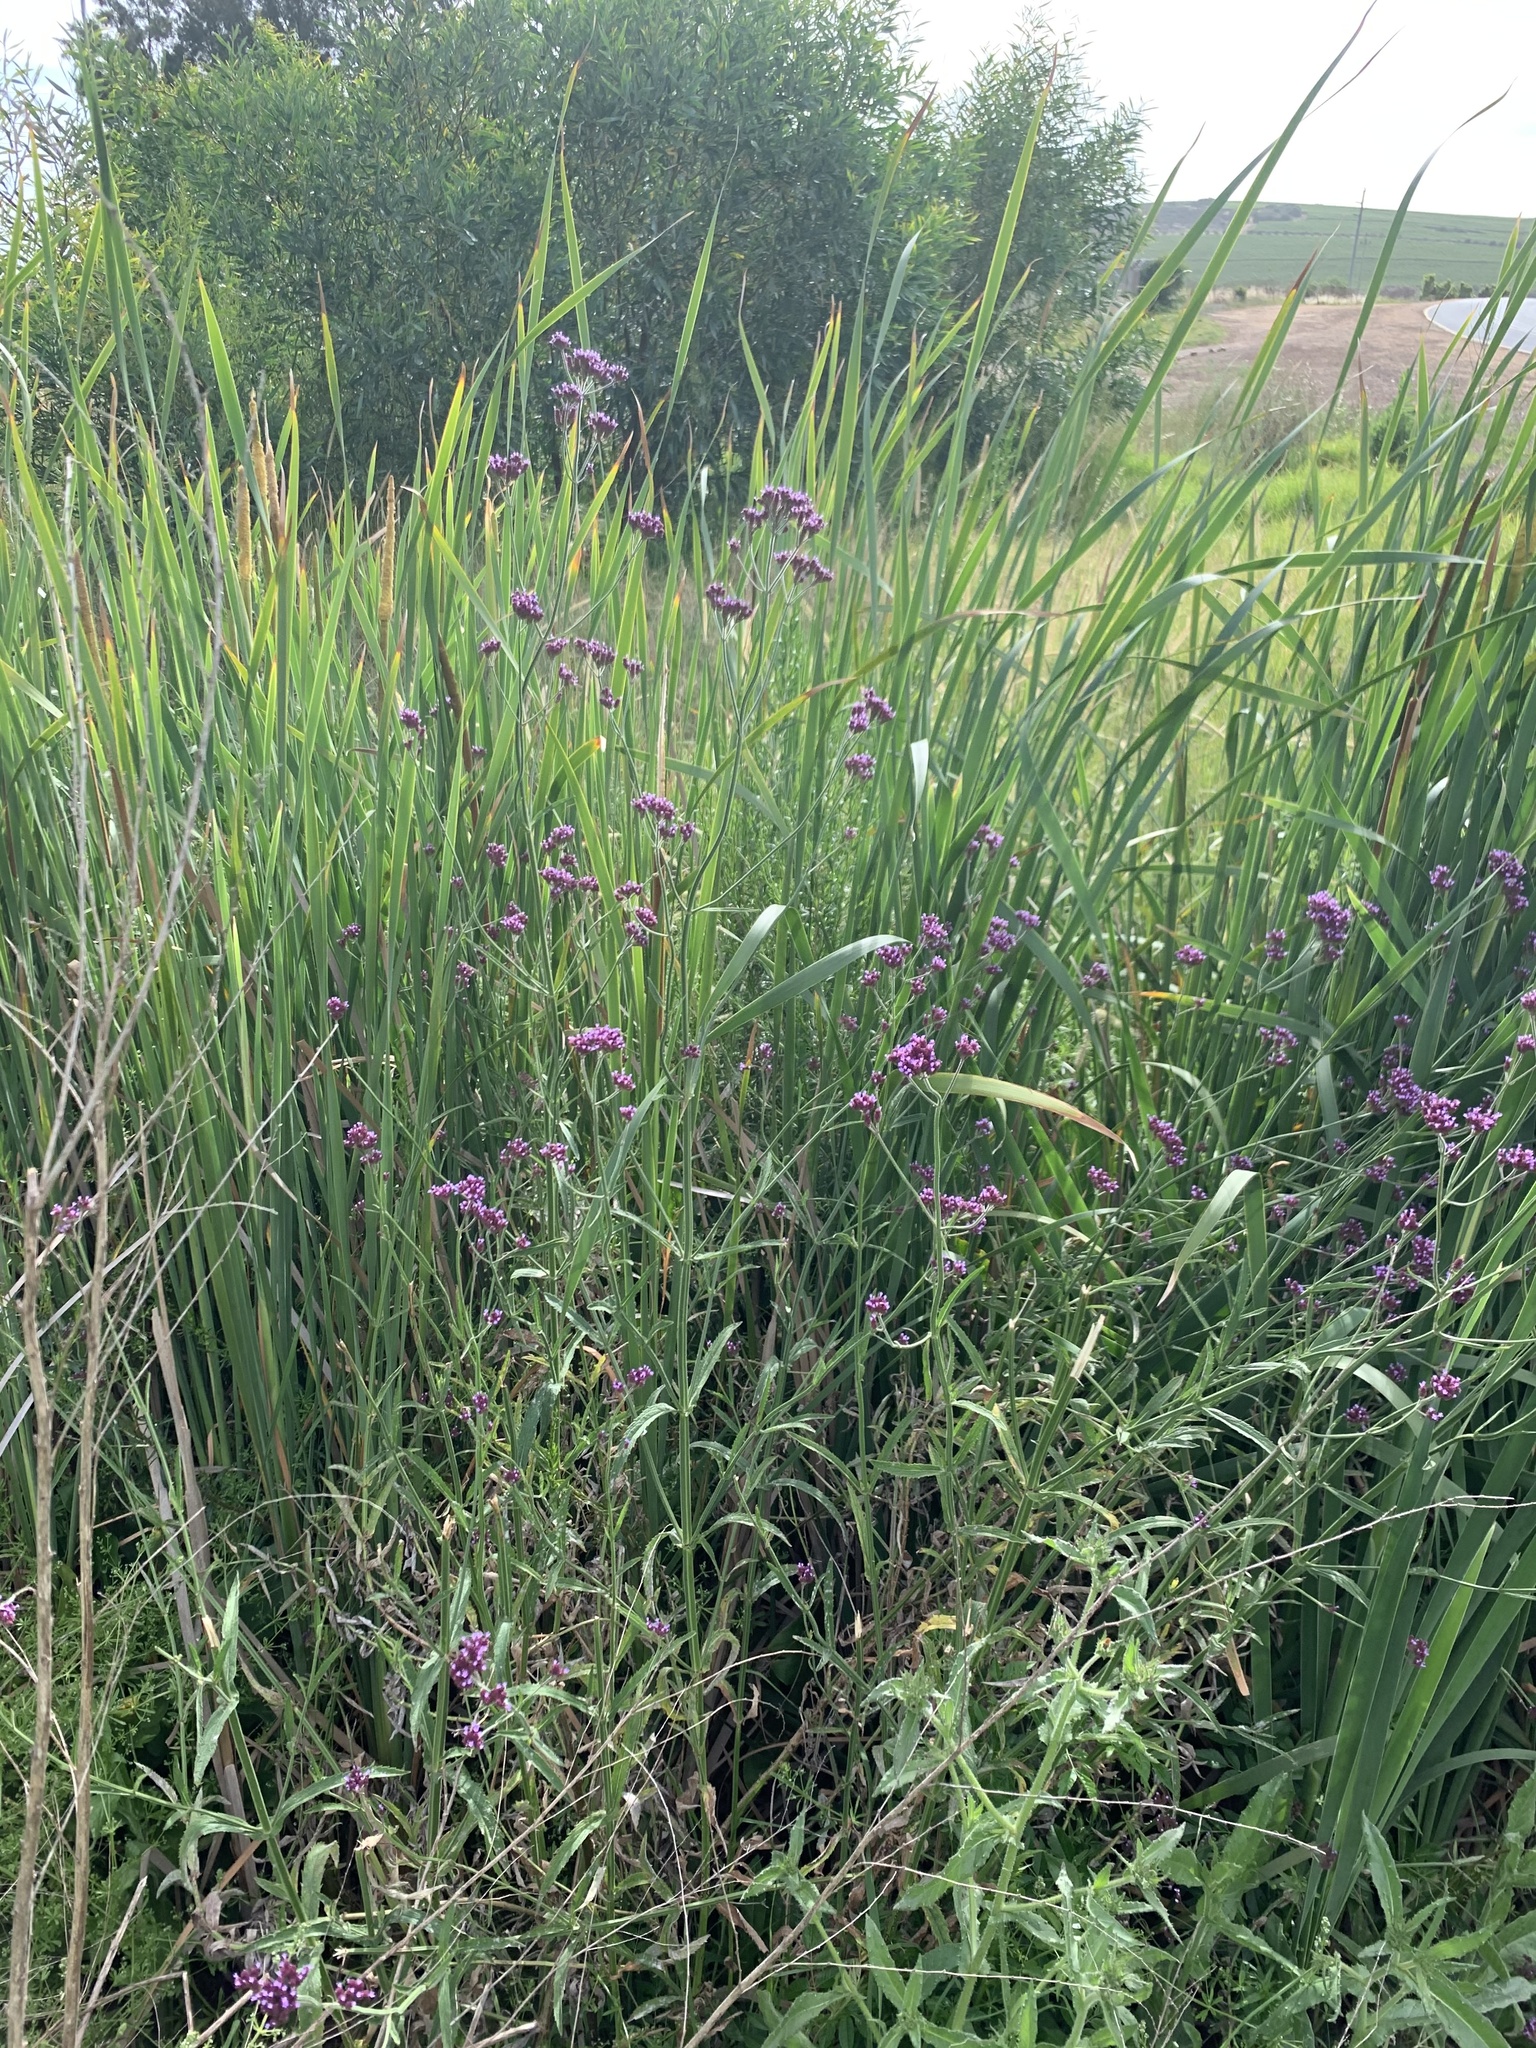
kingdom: Plantae
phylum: Tracheophyta
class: Magnoliopsida
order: Lamiales
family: Verbenaceae
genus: Verbena
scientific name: Verbena bonariensis
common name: Purpletop vervain
